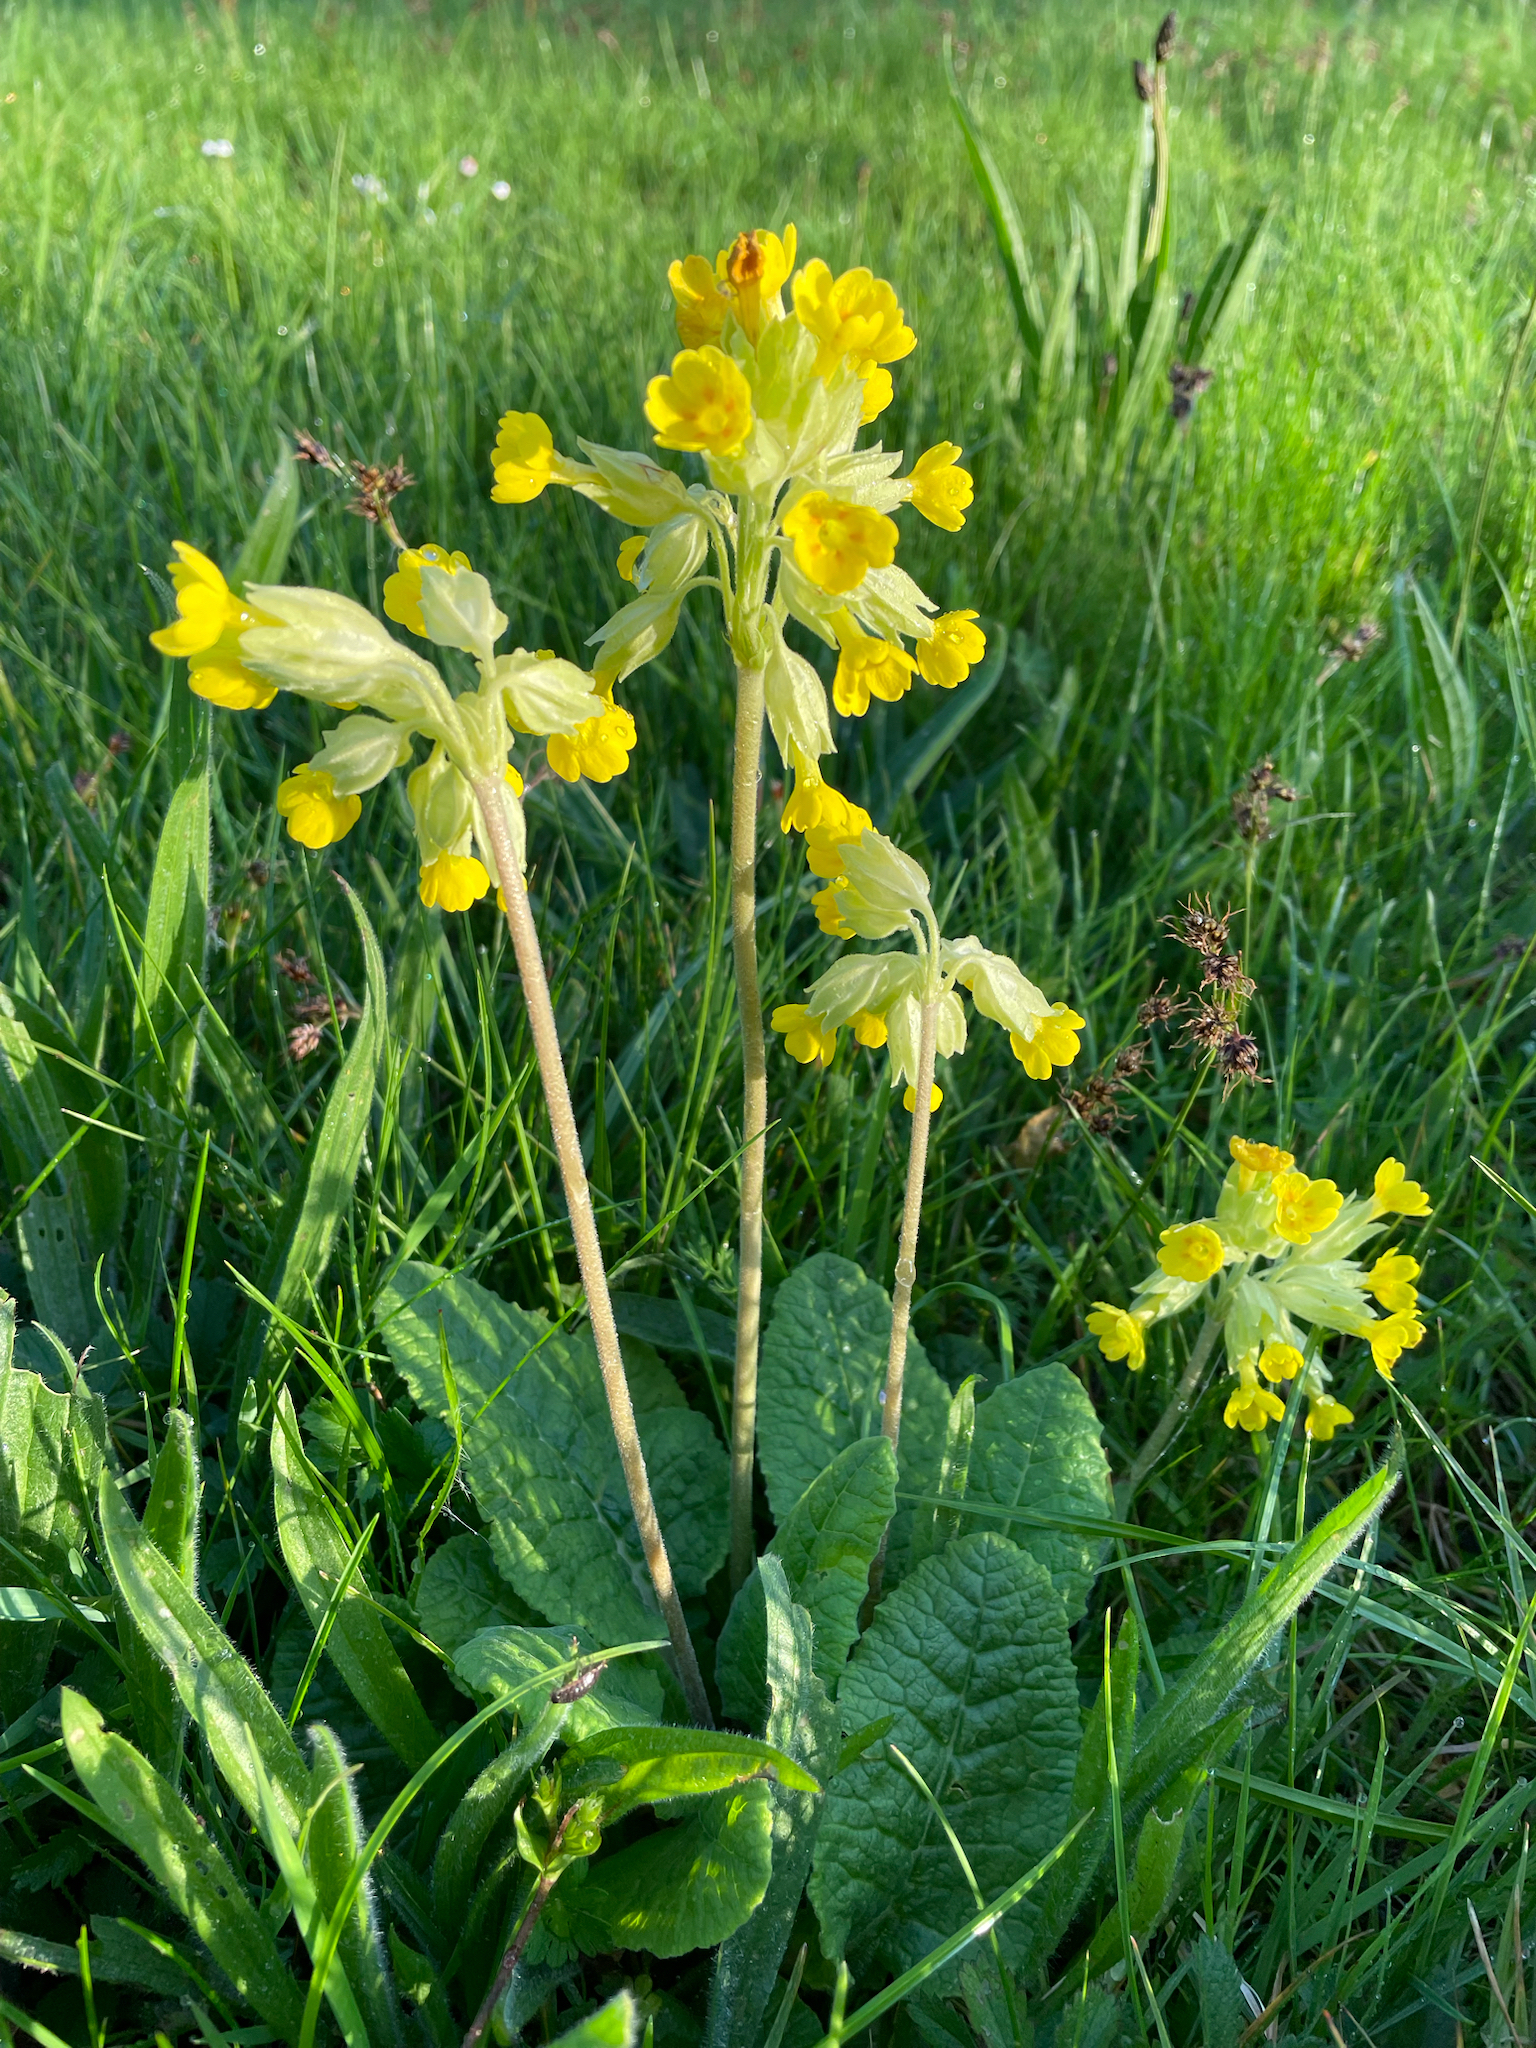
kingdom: Plantae
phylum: Tracheophyta
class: Magnoliopsida
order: Ericales
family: Primulaceae
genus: Primula
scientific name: Primula veris
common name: Cowslip
